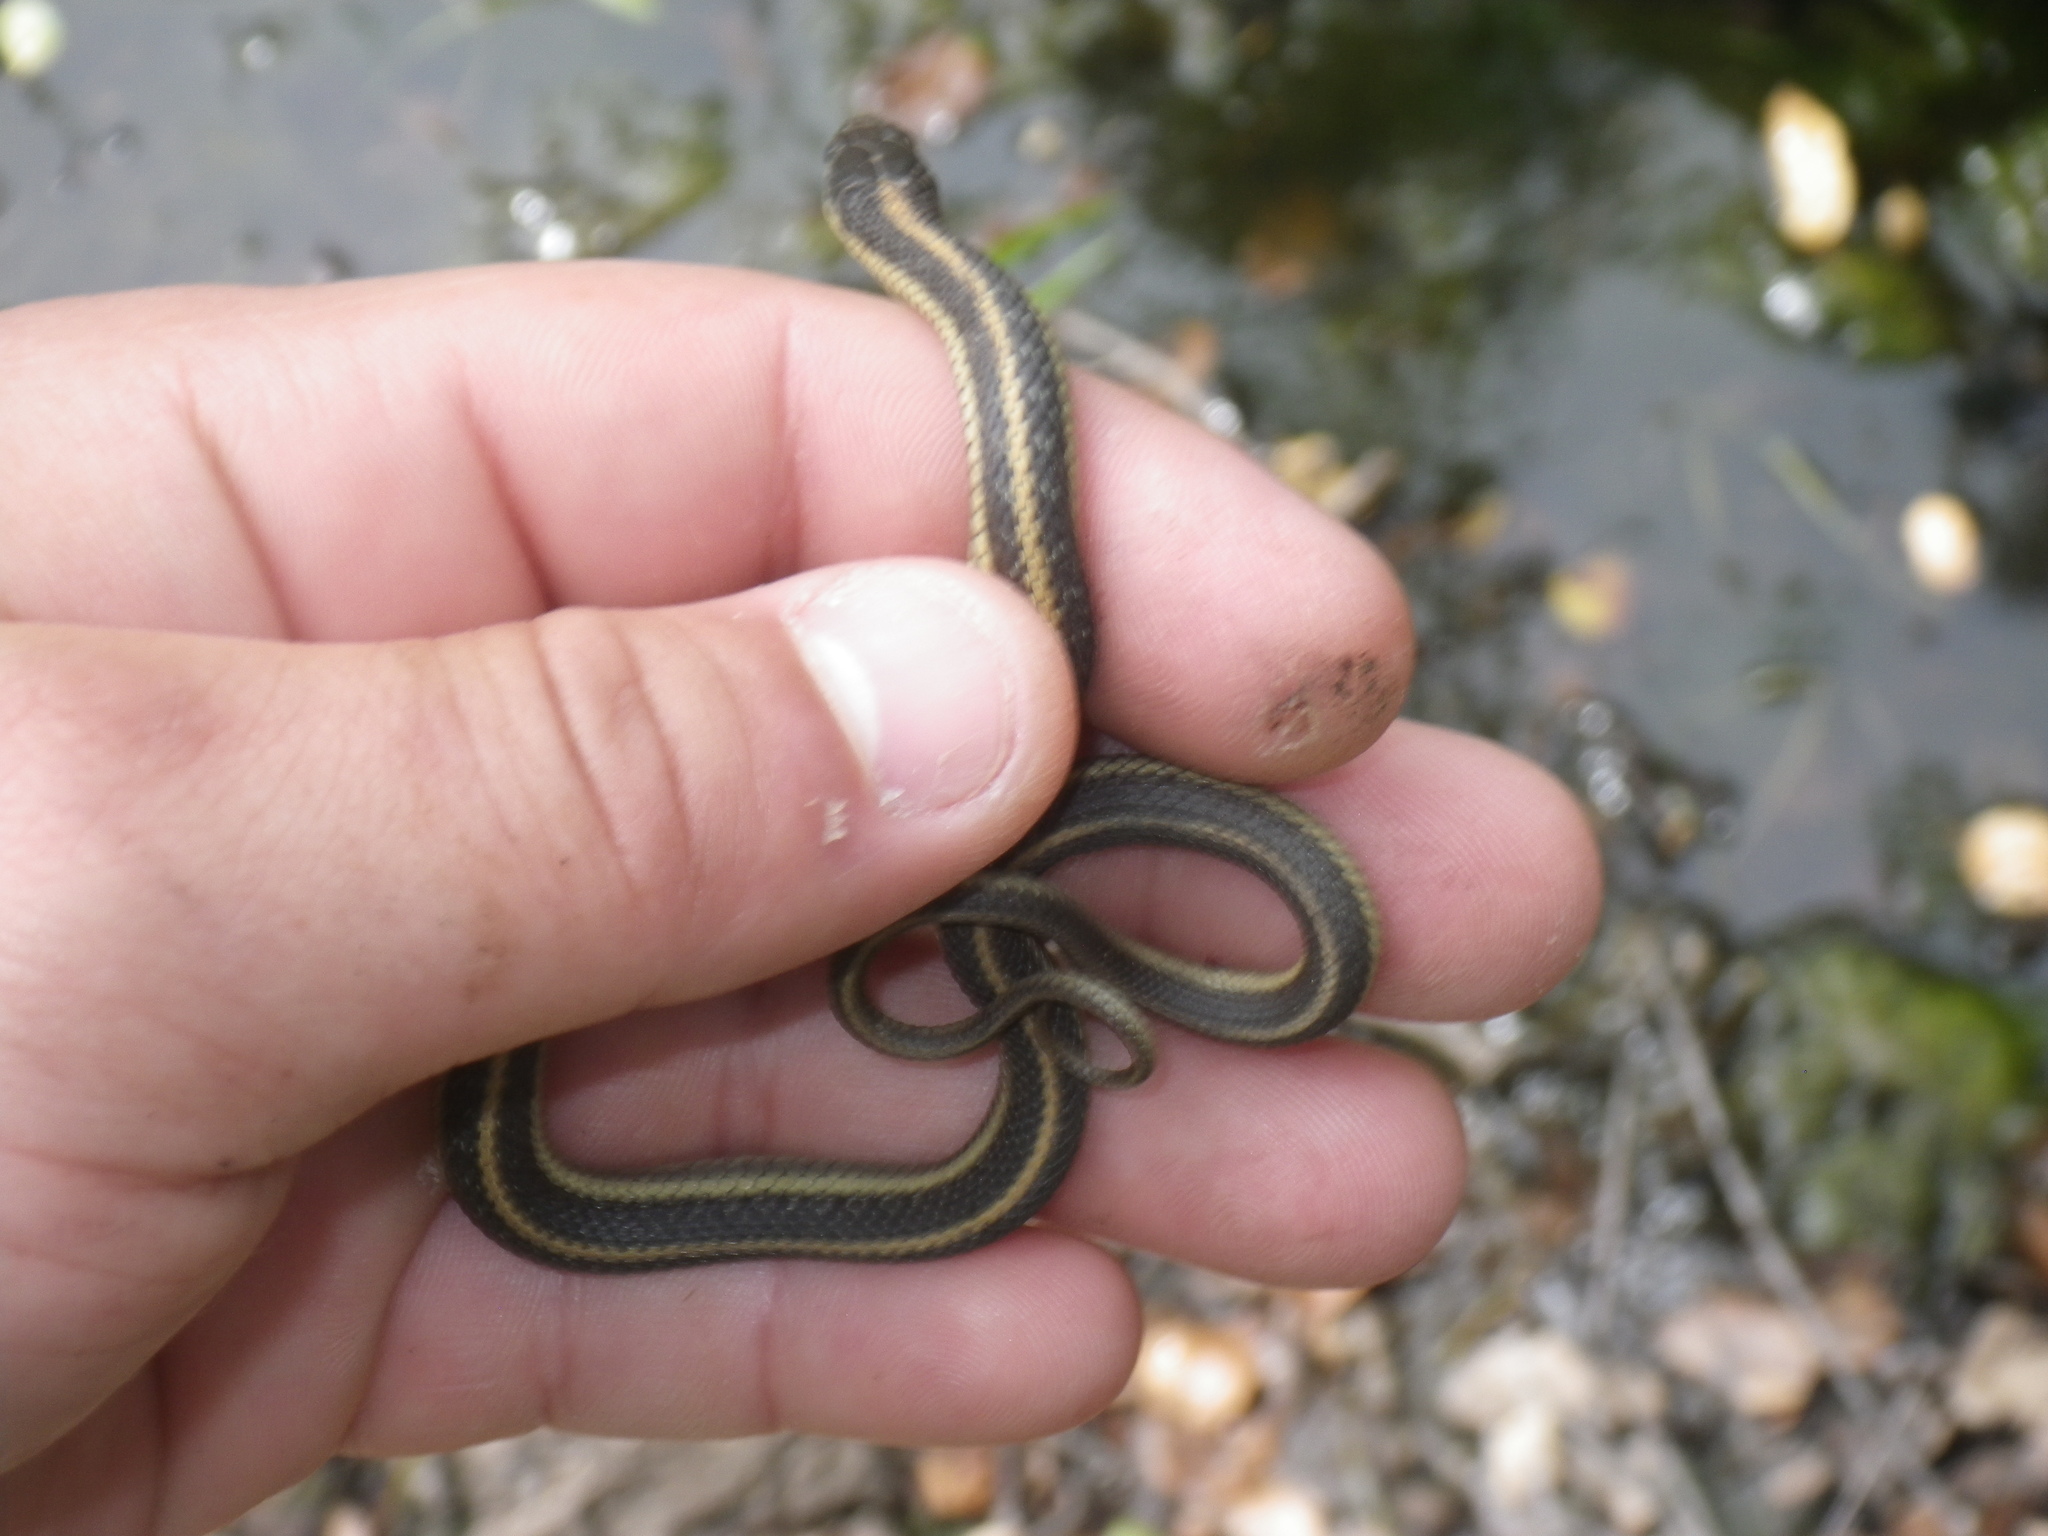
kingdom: Animalia
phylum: Chordata
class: Squamata
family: Colubridae
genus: Thamnophis
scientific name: Thamnophis atratus
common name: Pacific coast aquatic garter snake
